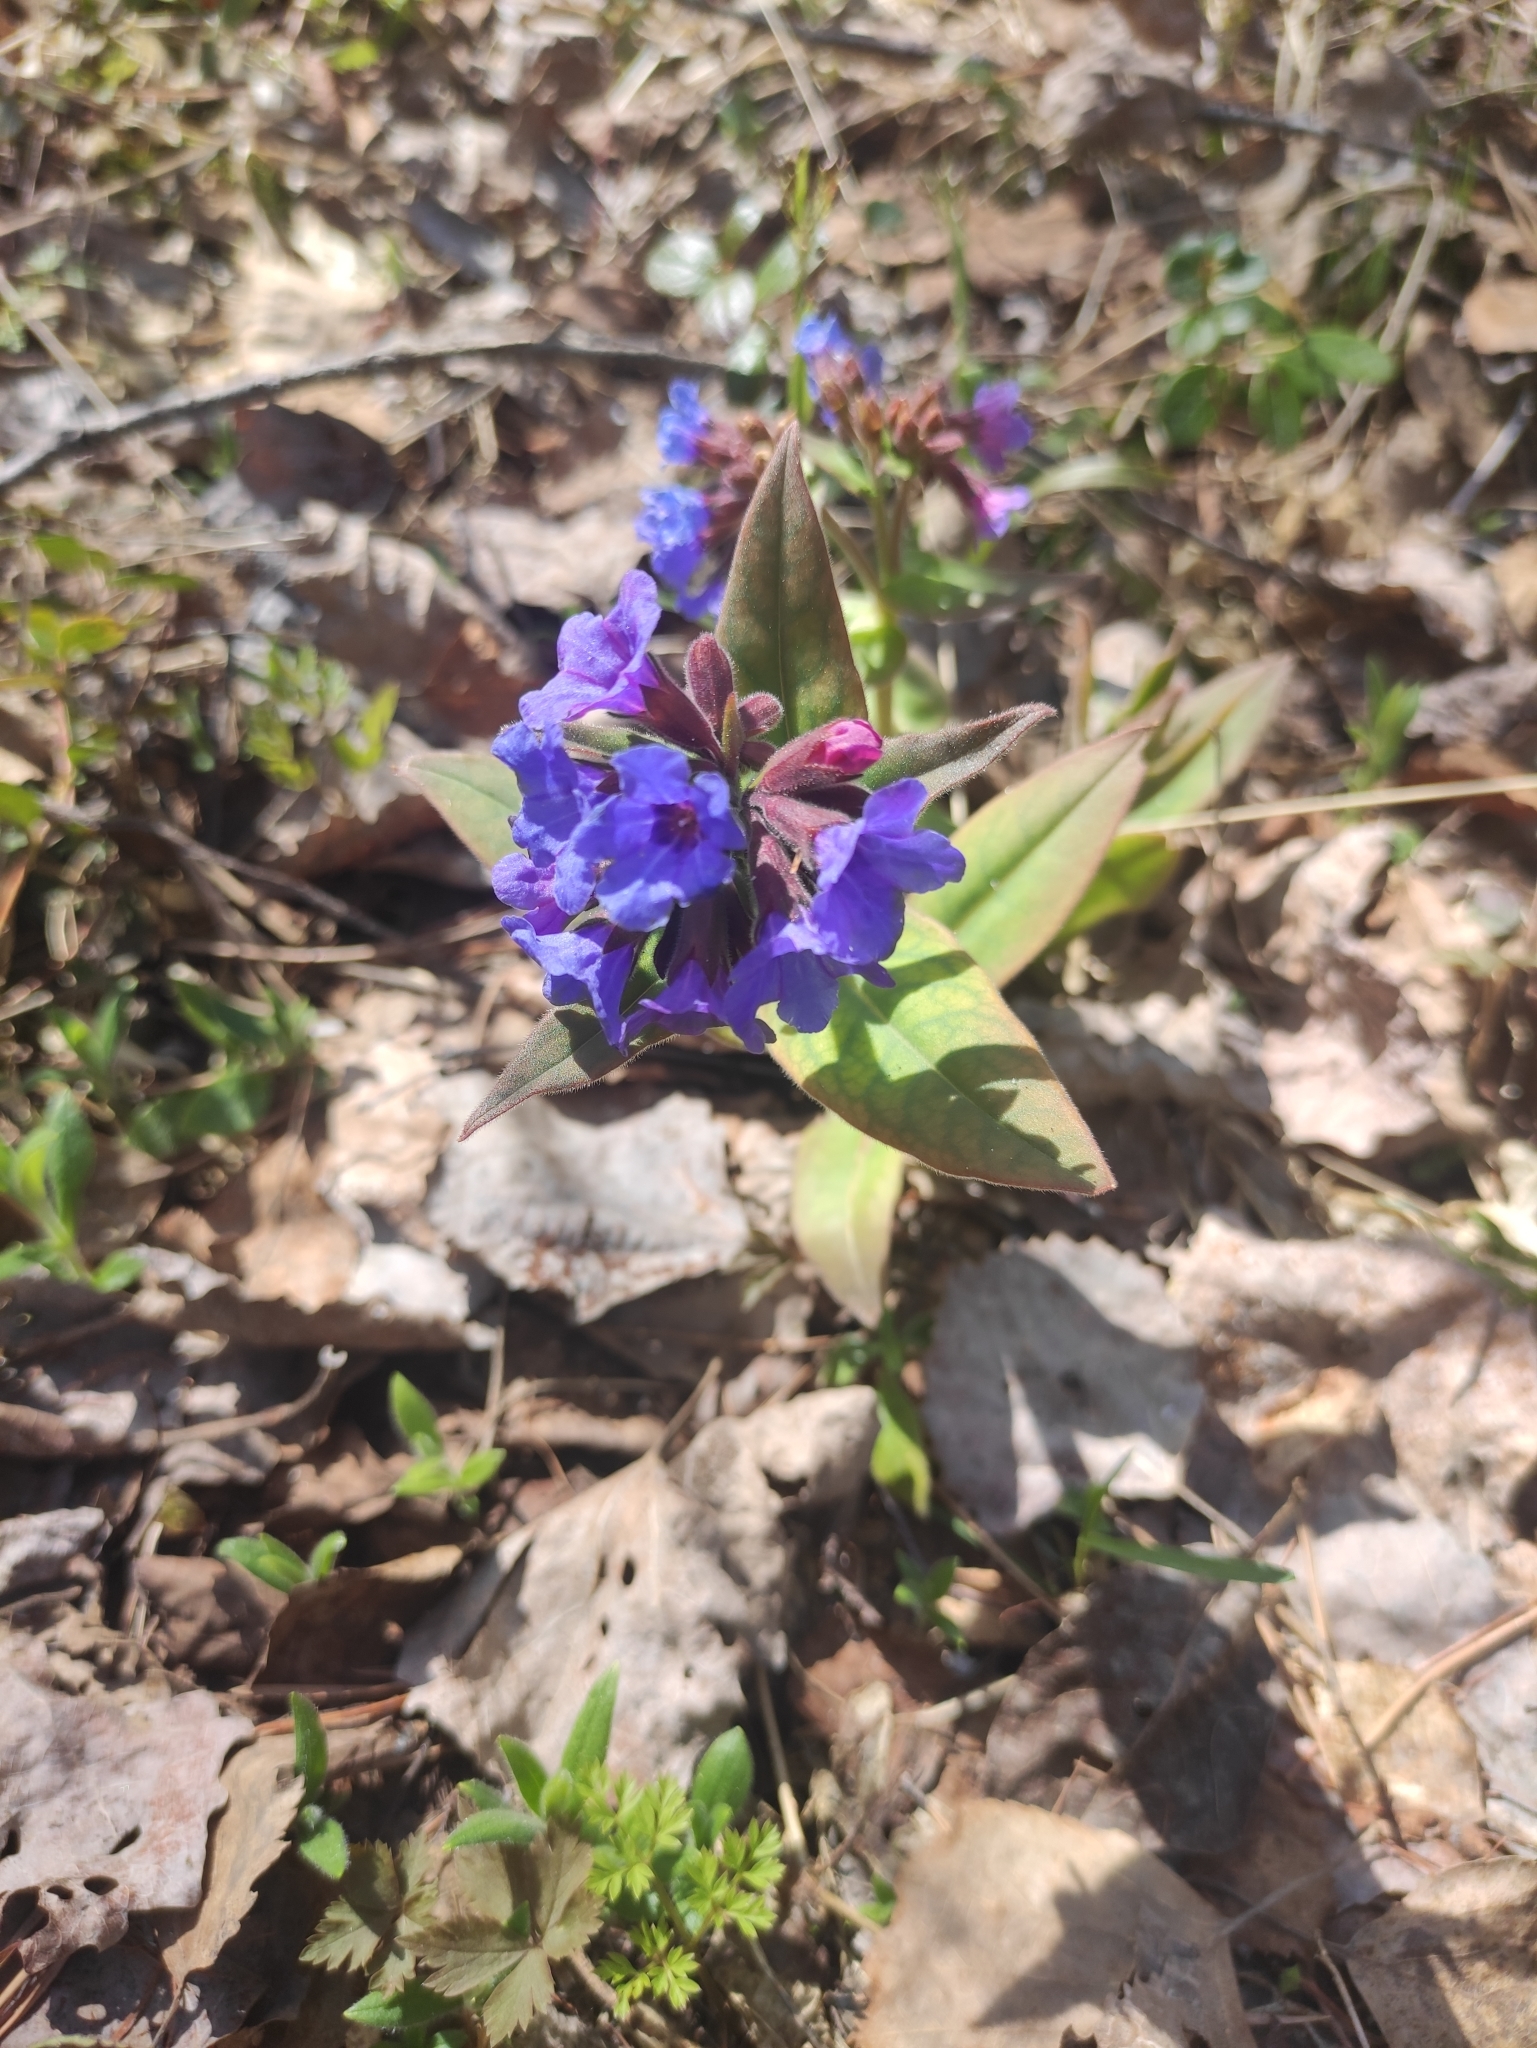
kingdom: Plantae
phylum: Tracheophyta
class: Magnoliopsida
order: Boraginales
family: Boraginaceae
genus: Pulmonaria
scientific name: Pulmonaria mollis
